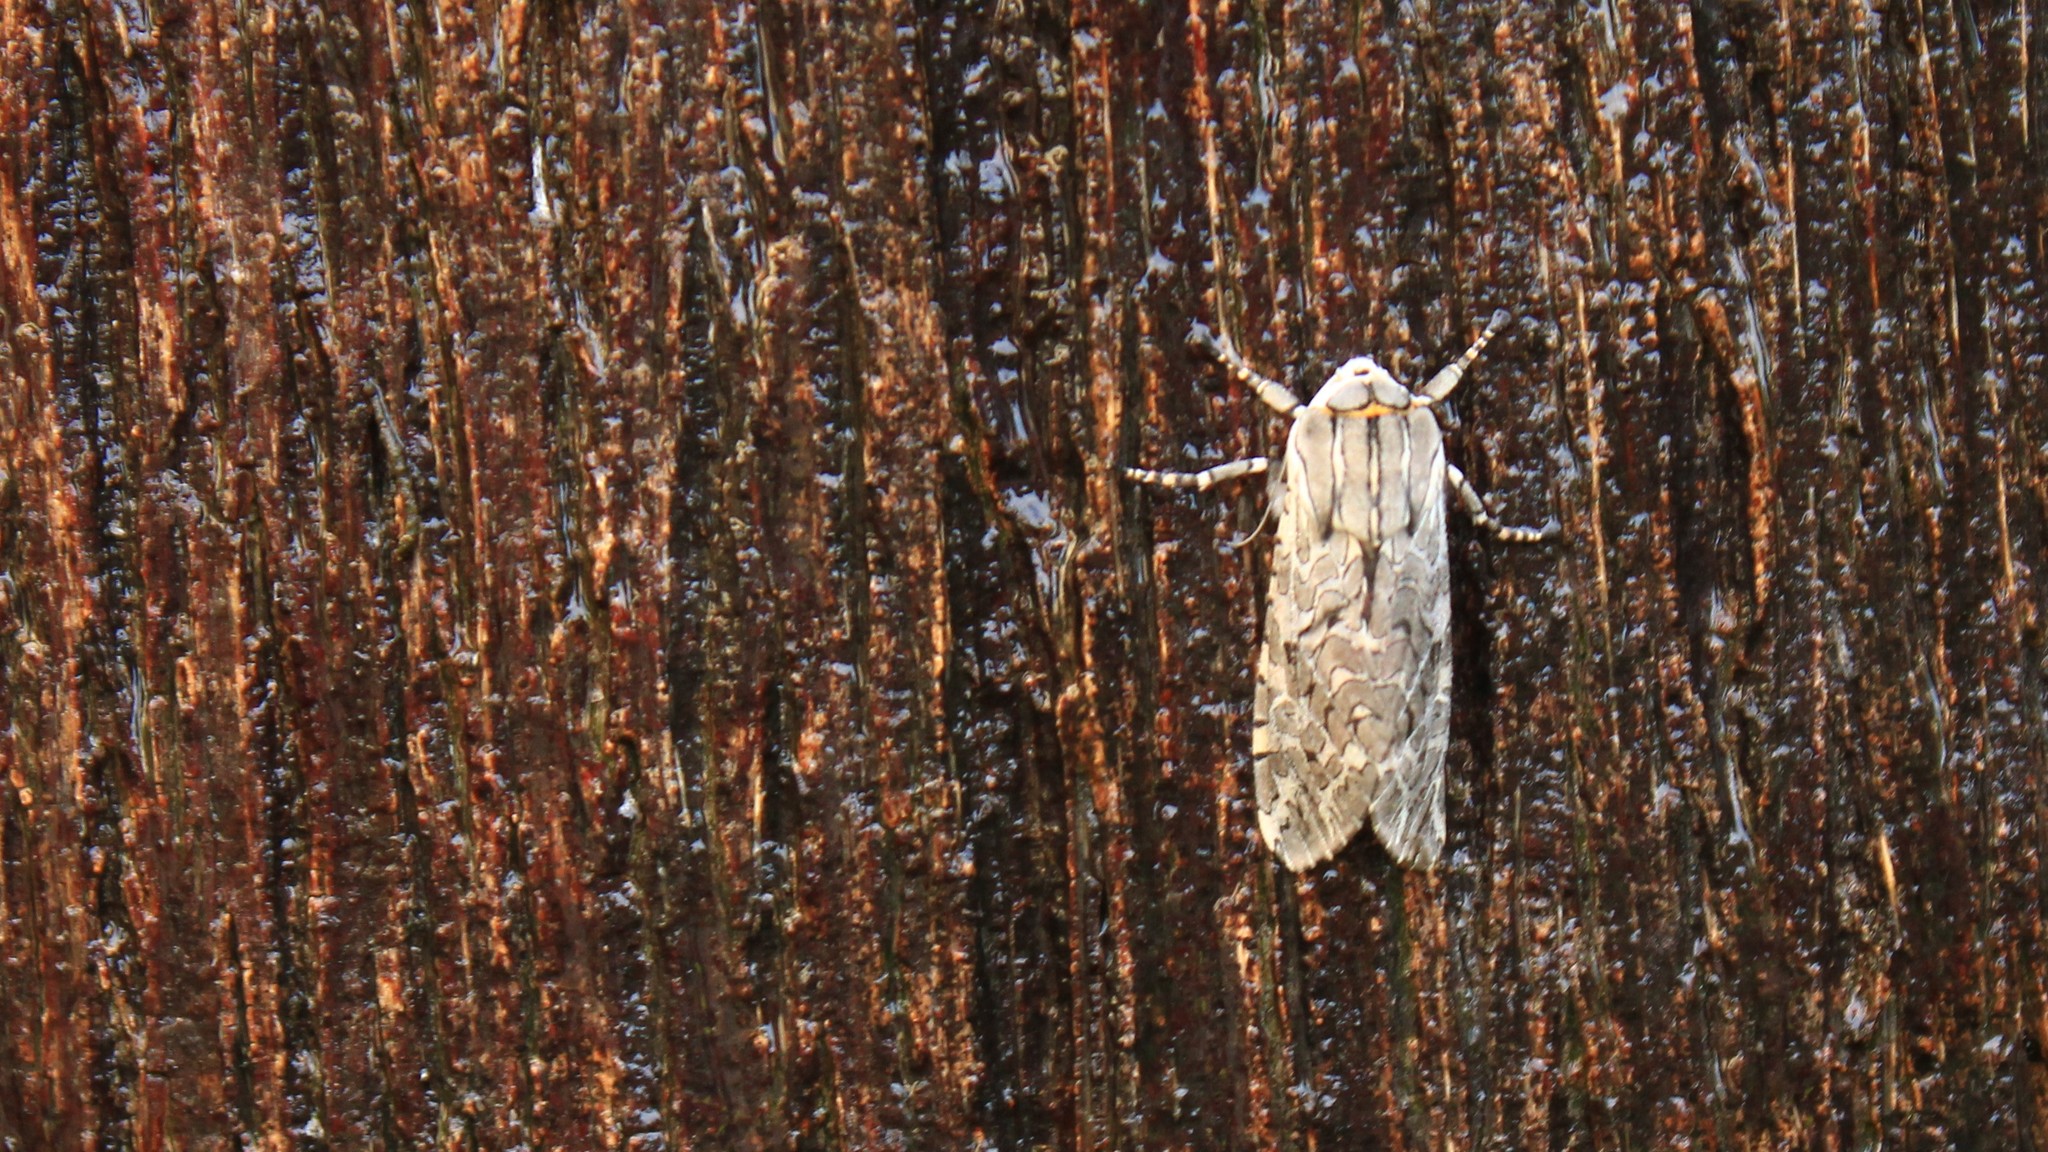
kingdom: Animalia
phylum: Arthropoda
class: Insecta
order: Lepidoptera
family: Erebidae
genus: Arachnis
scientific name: Arachnis picta
